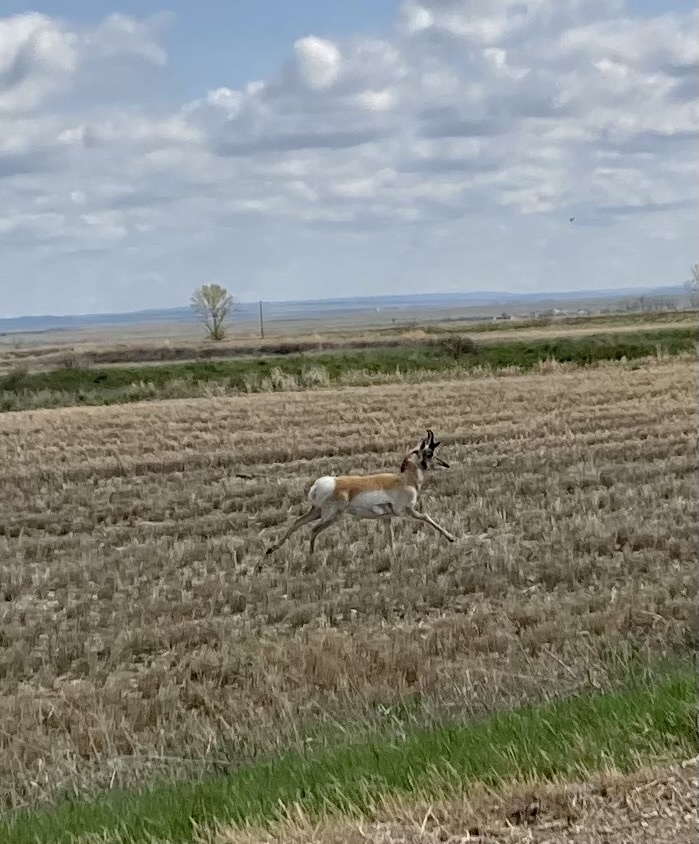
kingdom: Animalia
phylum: Chordata
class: Mammalia
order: Artiodactyla
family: Antilocapridae
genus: Antilocapra
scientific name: Antilocapra americana
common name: Pronghorn
